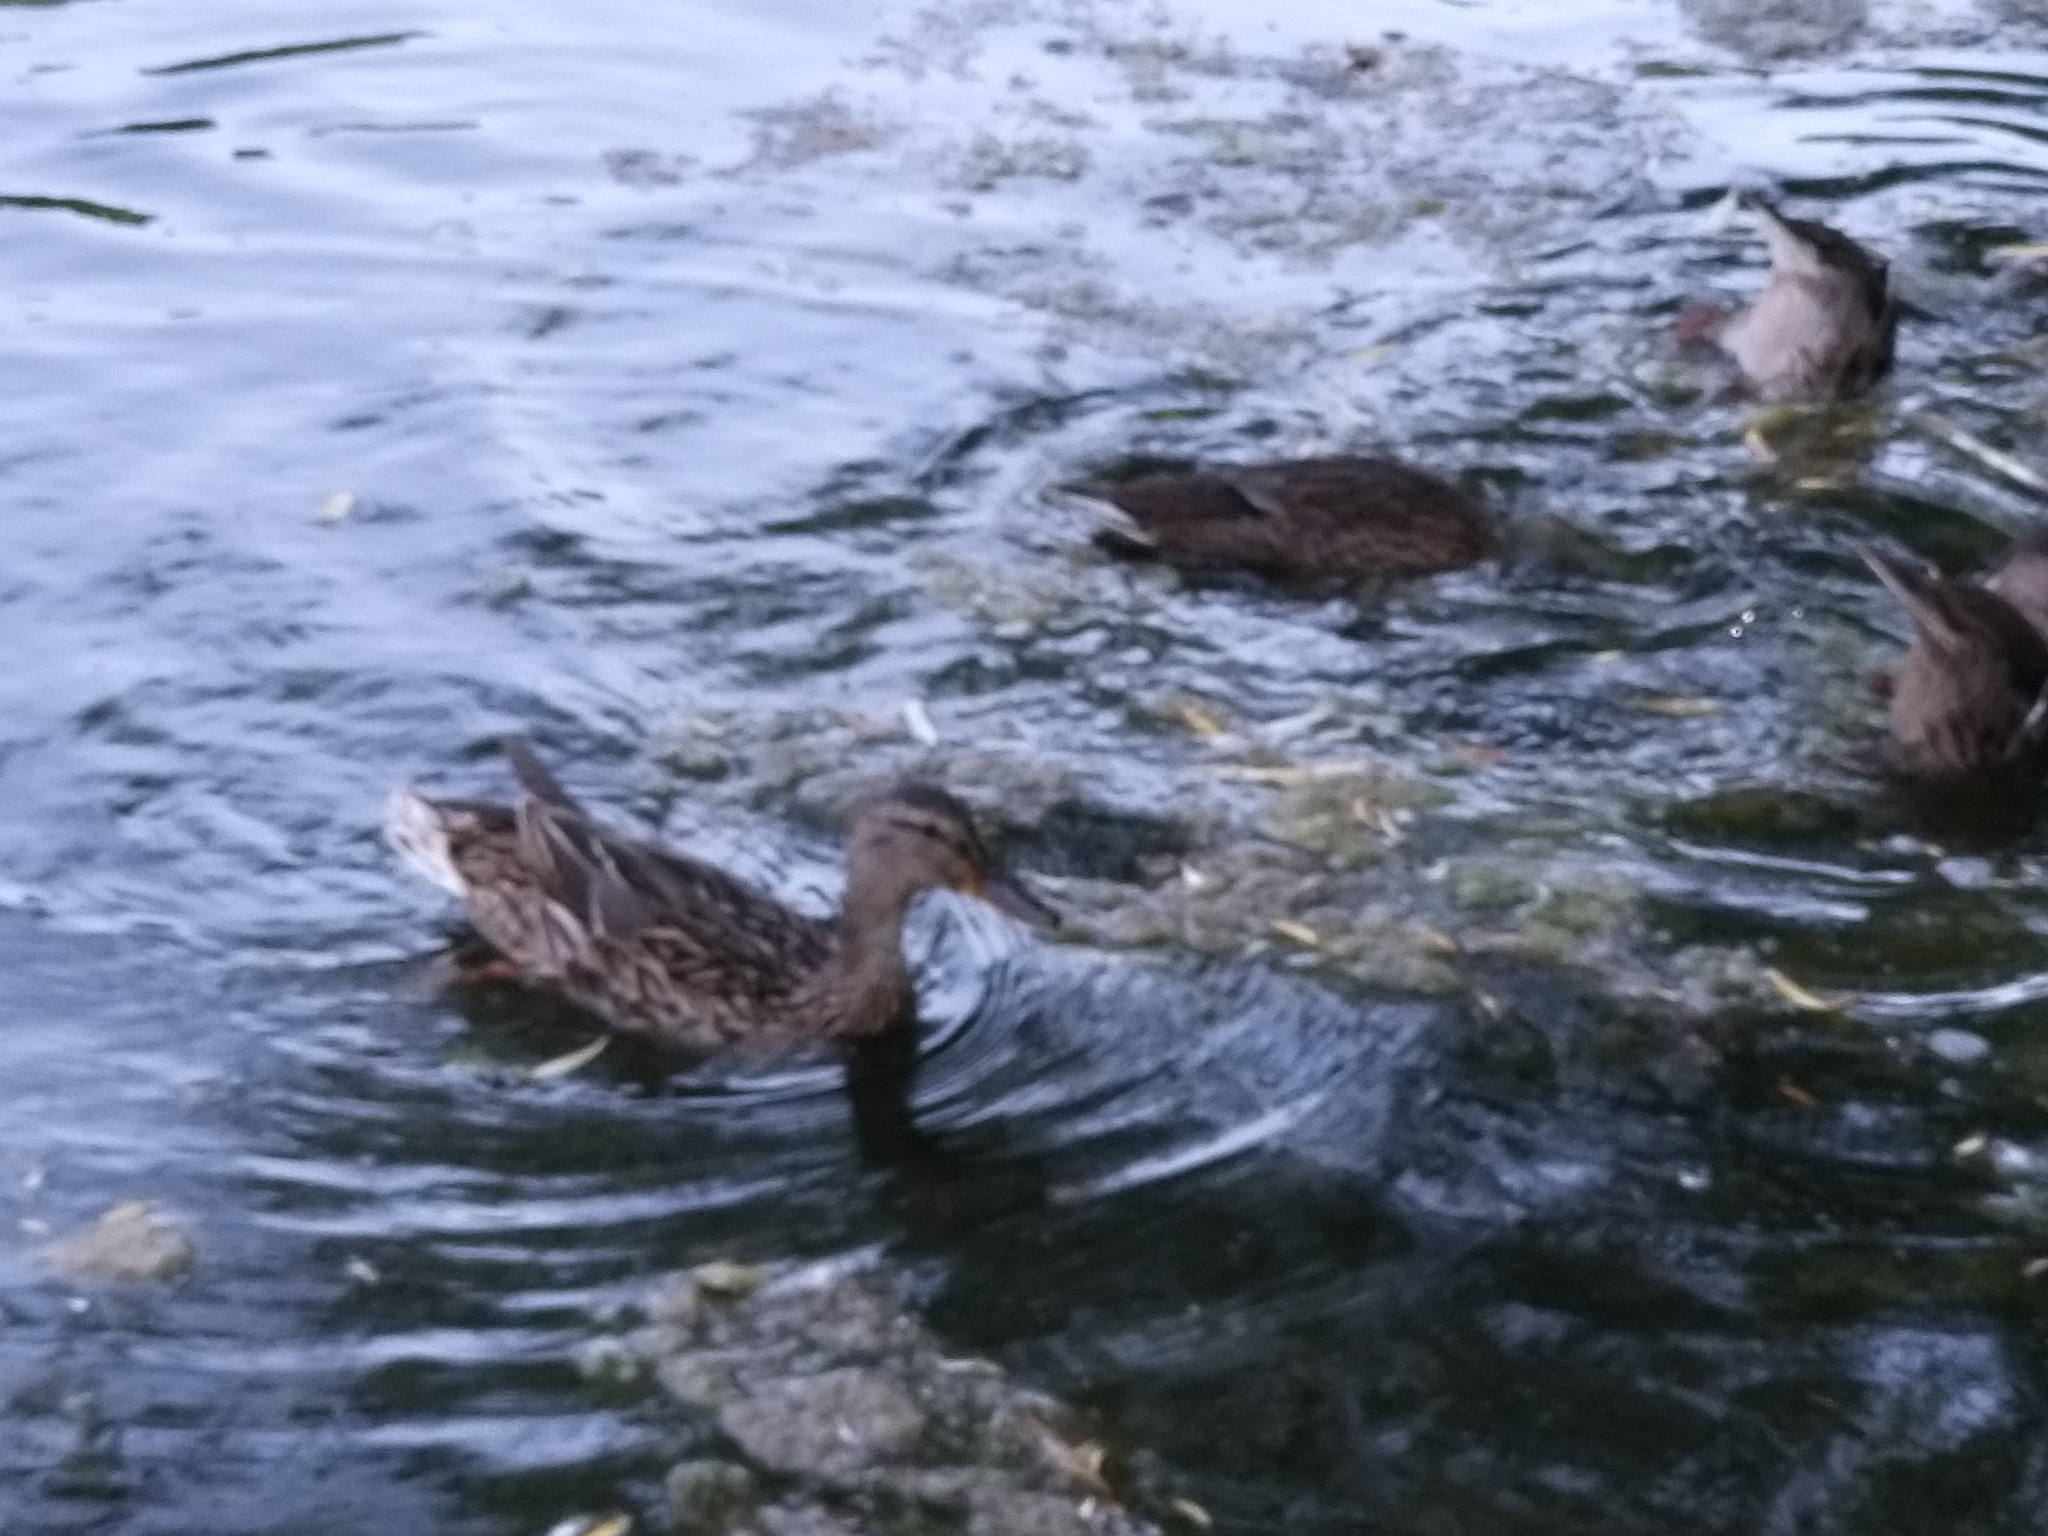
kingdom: Animalia
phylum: Chordata
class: Aves
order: Anseriformes
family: Anatidae
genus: Anas
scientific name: Anas platyrhynchos
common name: Mallard
